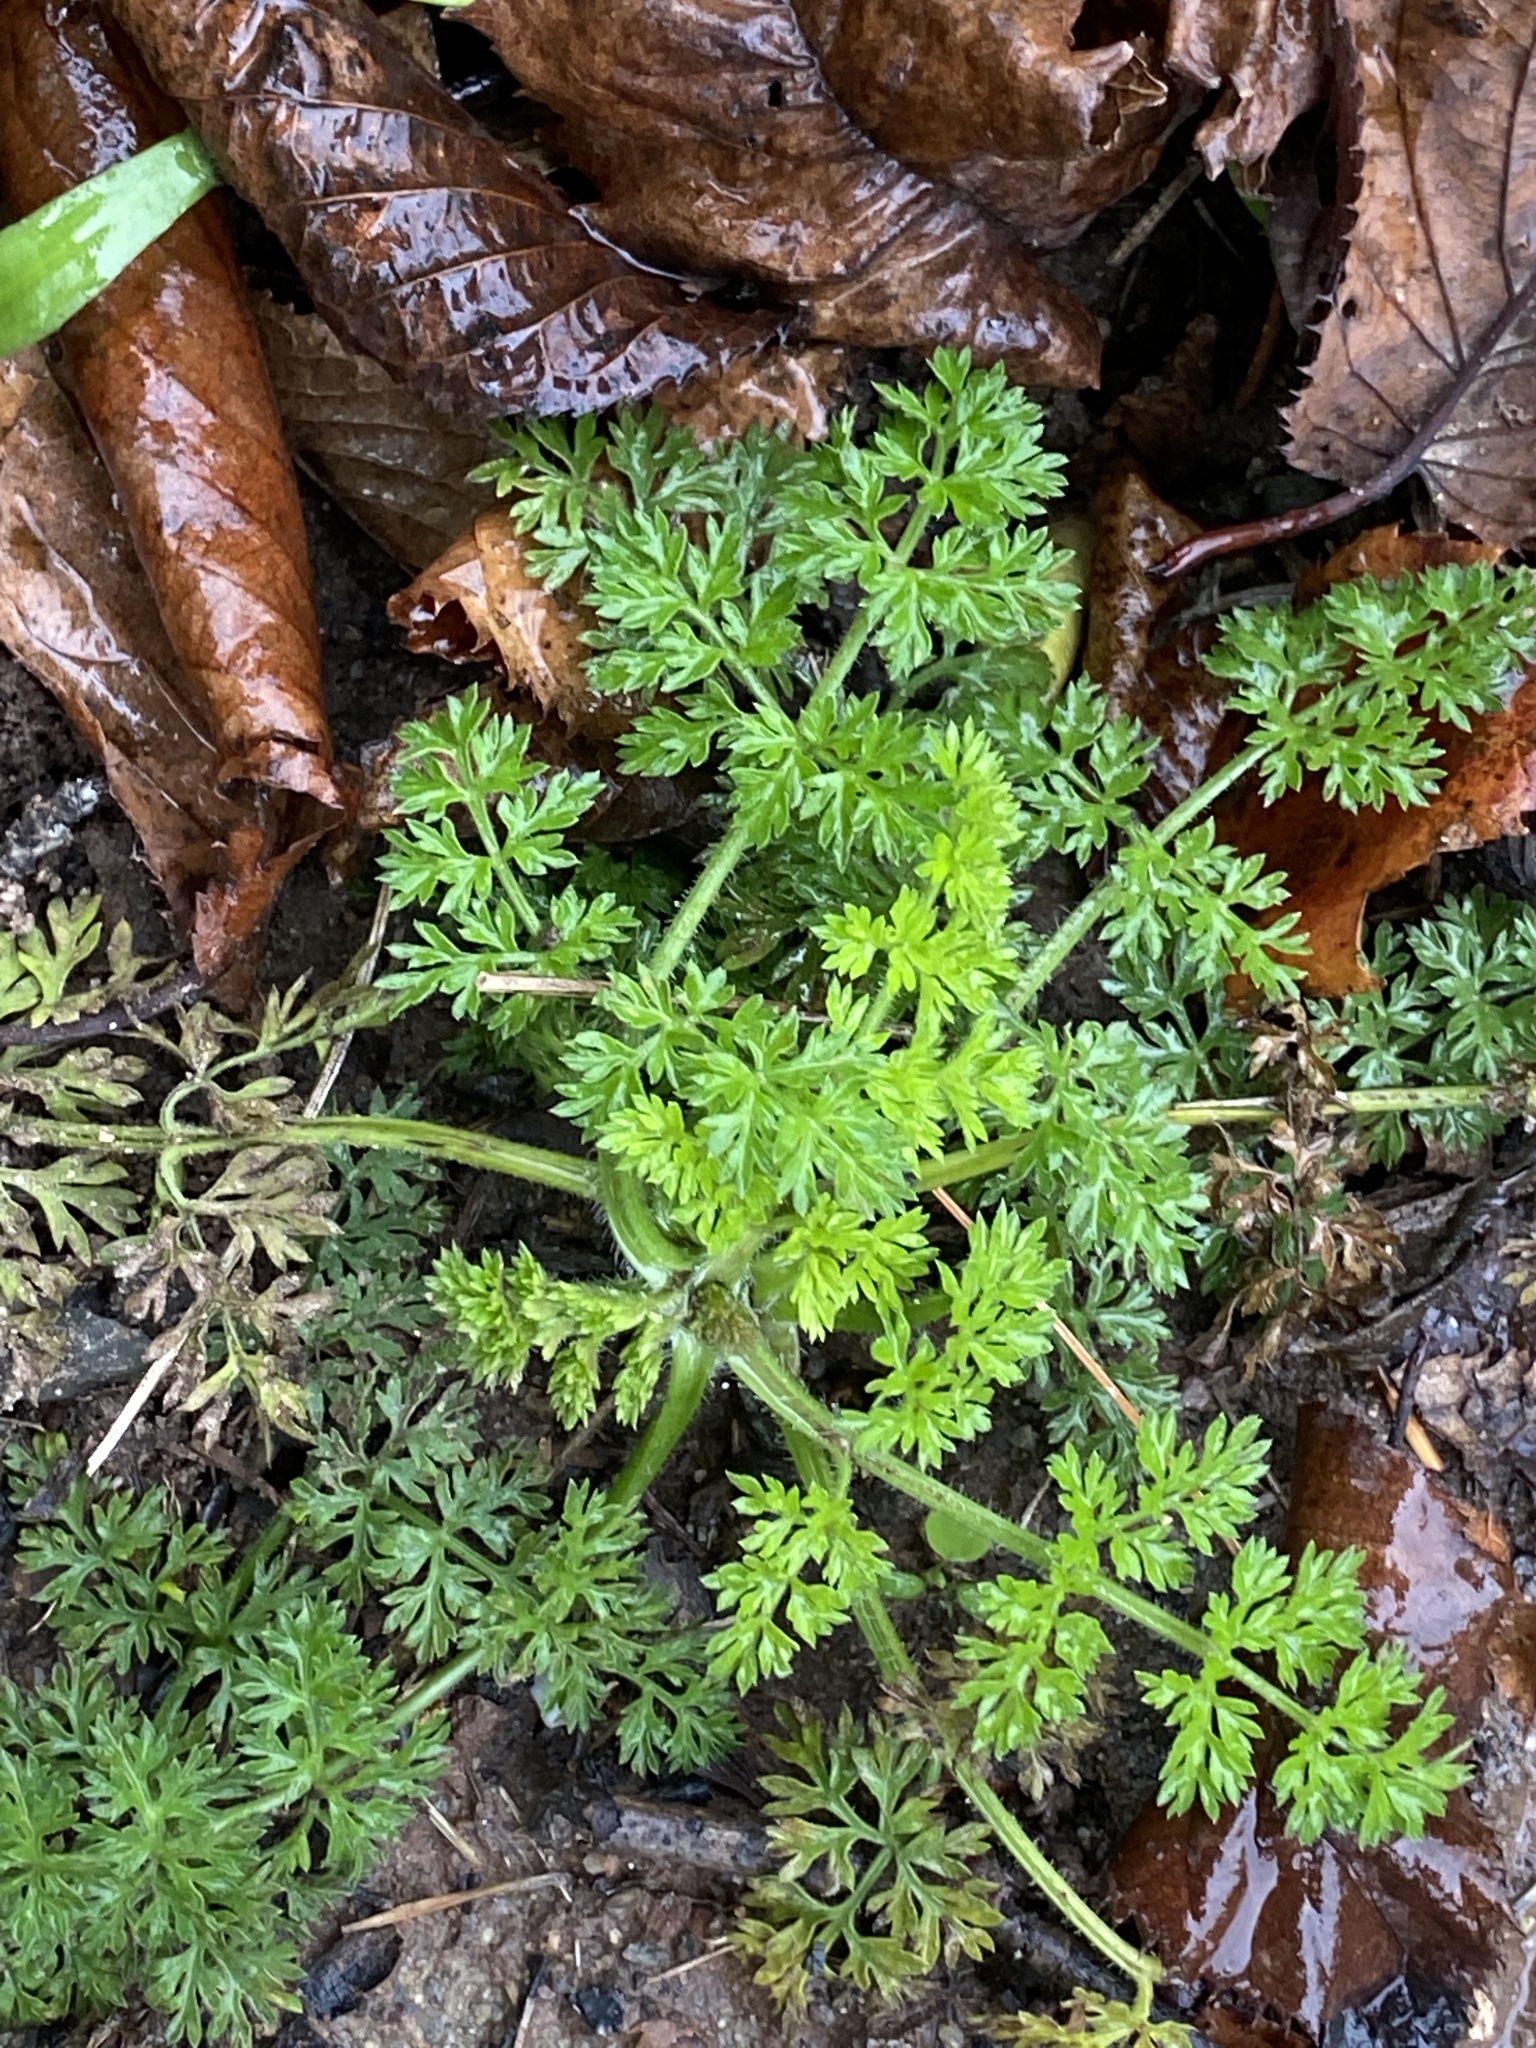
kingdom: Plantae
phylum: Tracheophyta
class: Magnoliopsida
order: Apiales
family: Apiaceae
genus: Daucus
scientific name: Daucus carota
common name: Wild carrot
